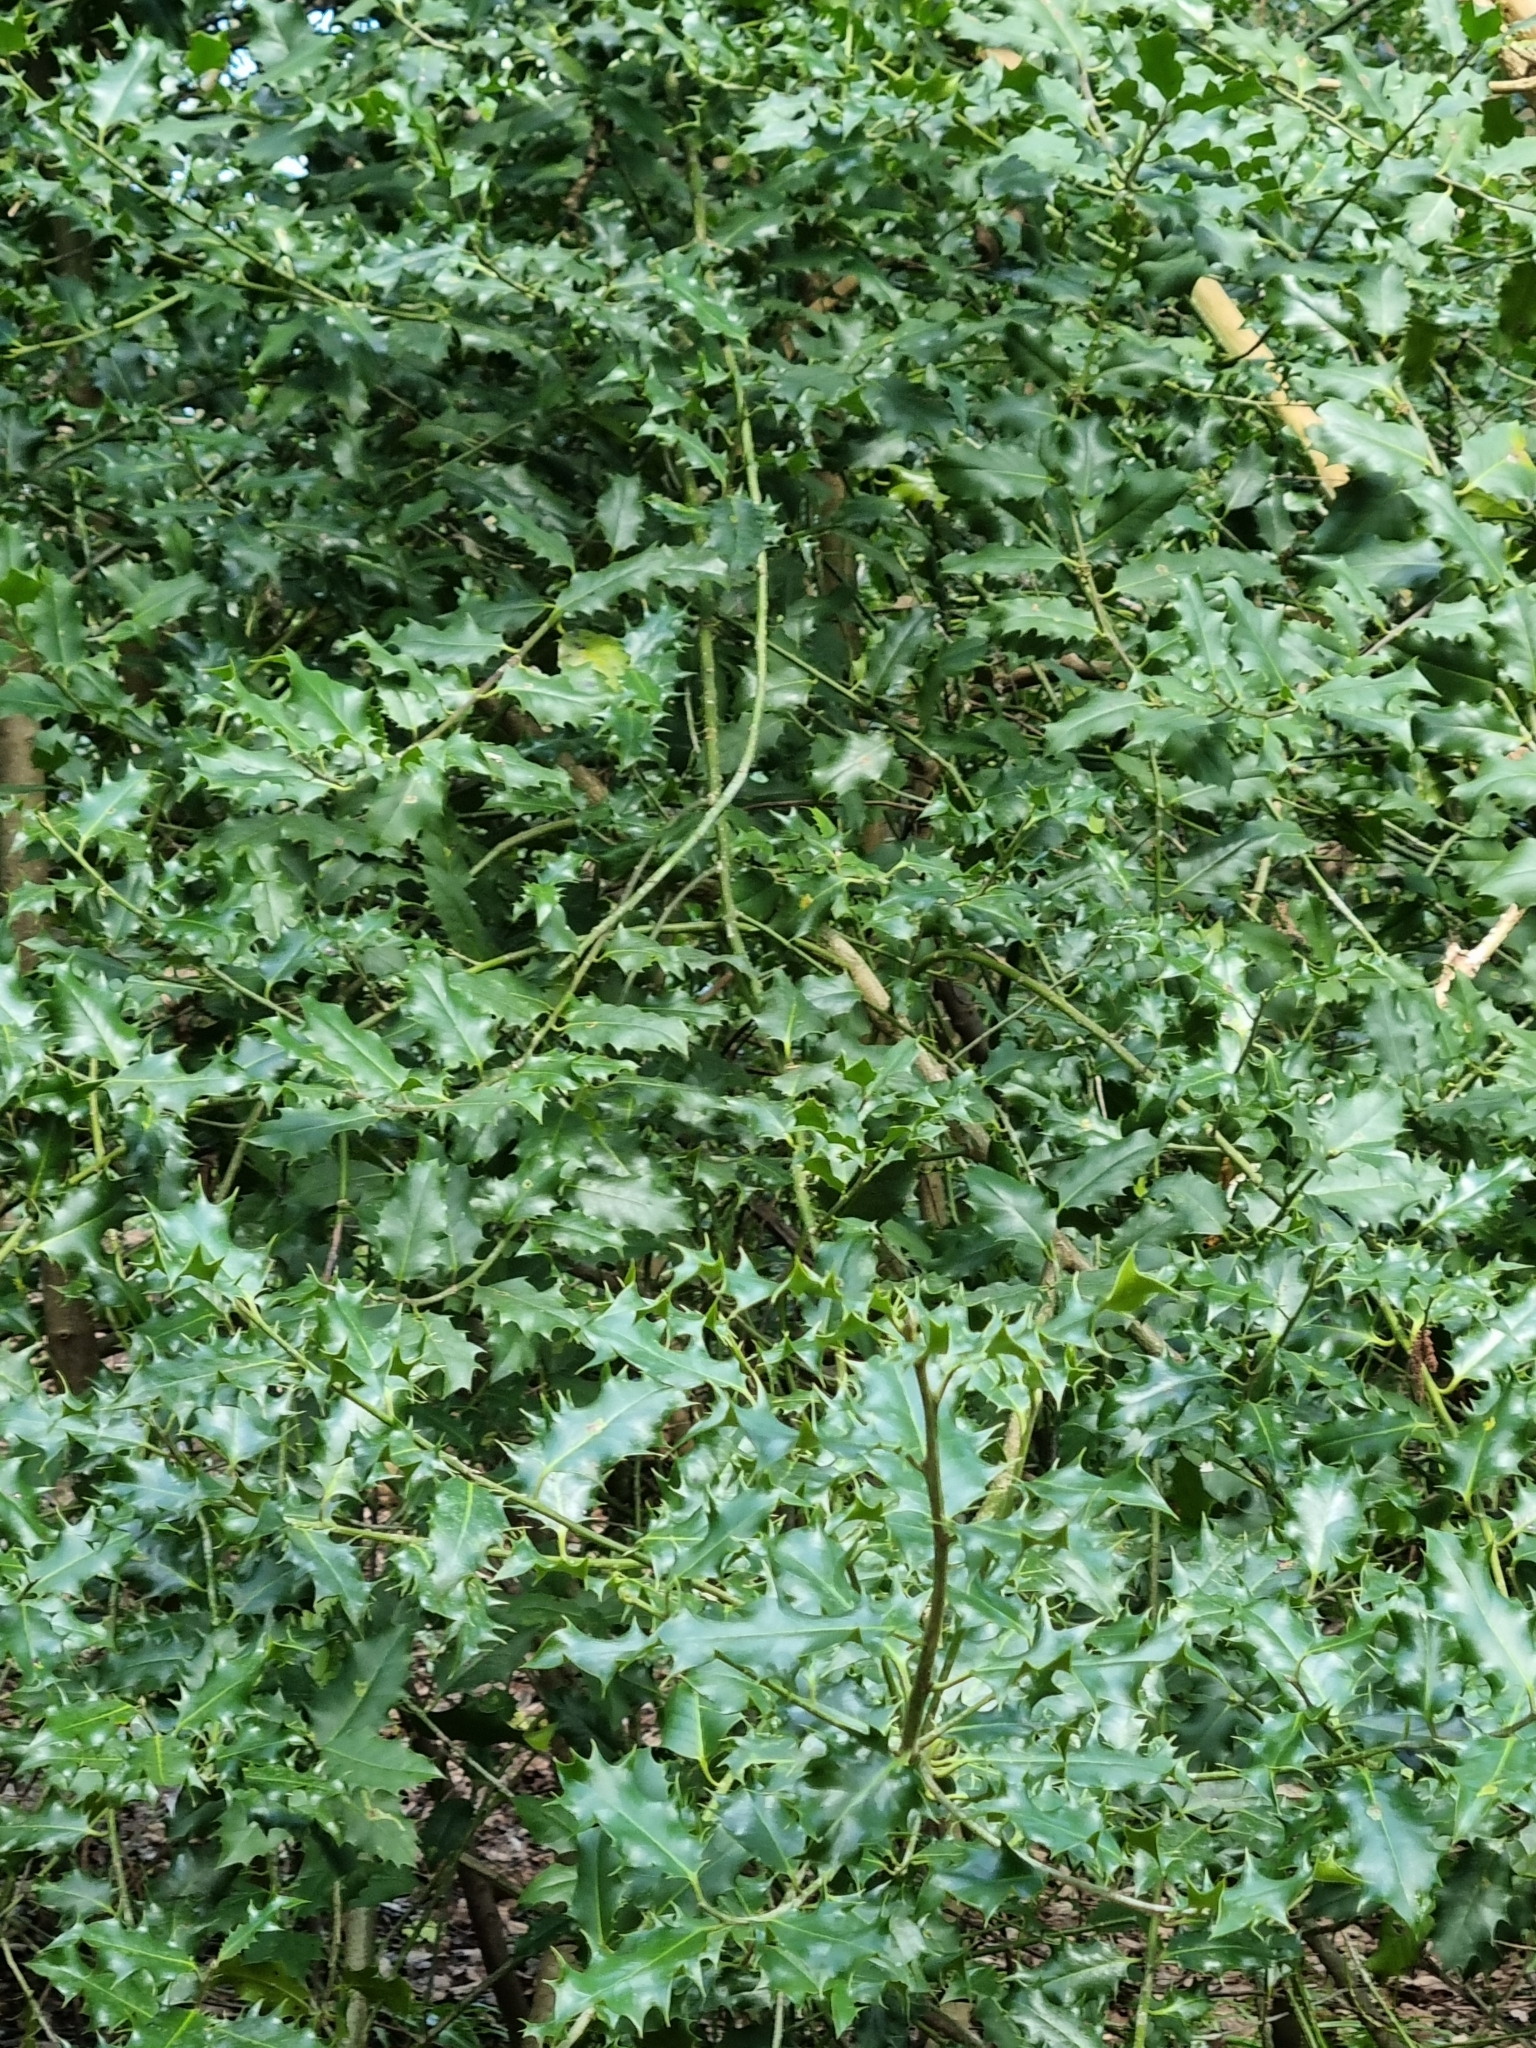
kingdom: Plantae
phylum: Tracheophyta
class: Magnoliopsida
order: Aquifoliales
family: Aquifoliaceae
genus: Ilex
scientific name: Ilex aquifolium
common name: English holly
